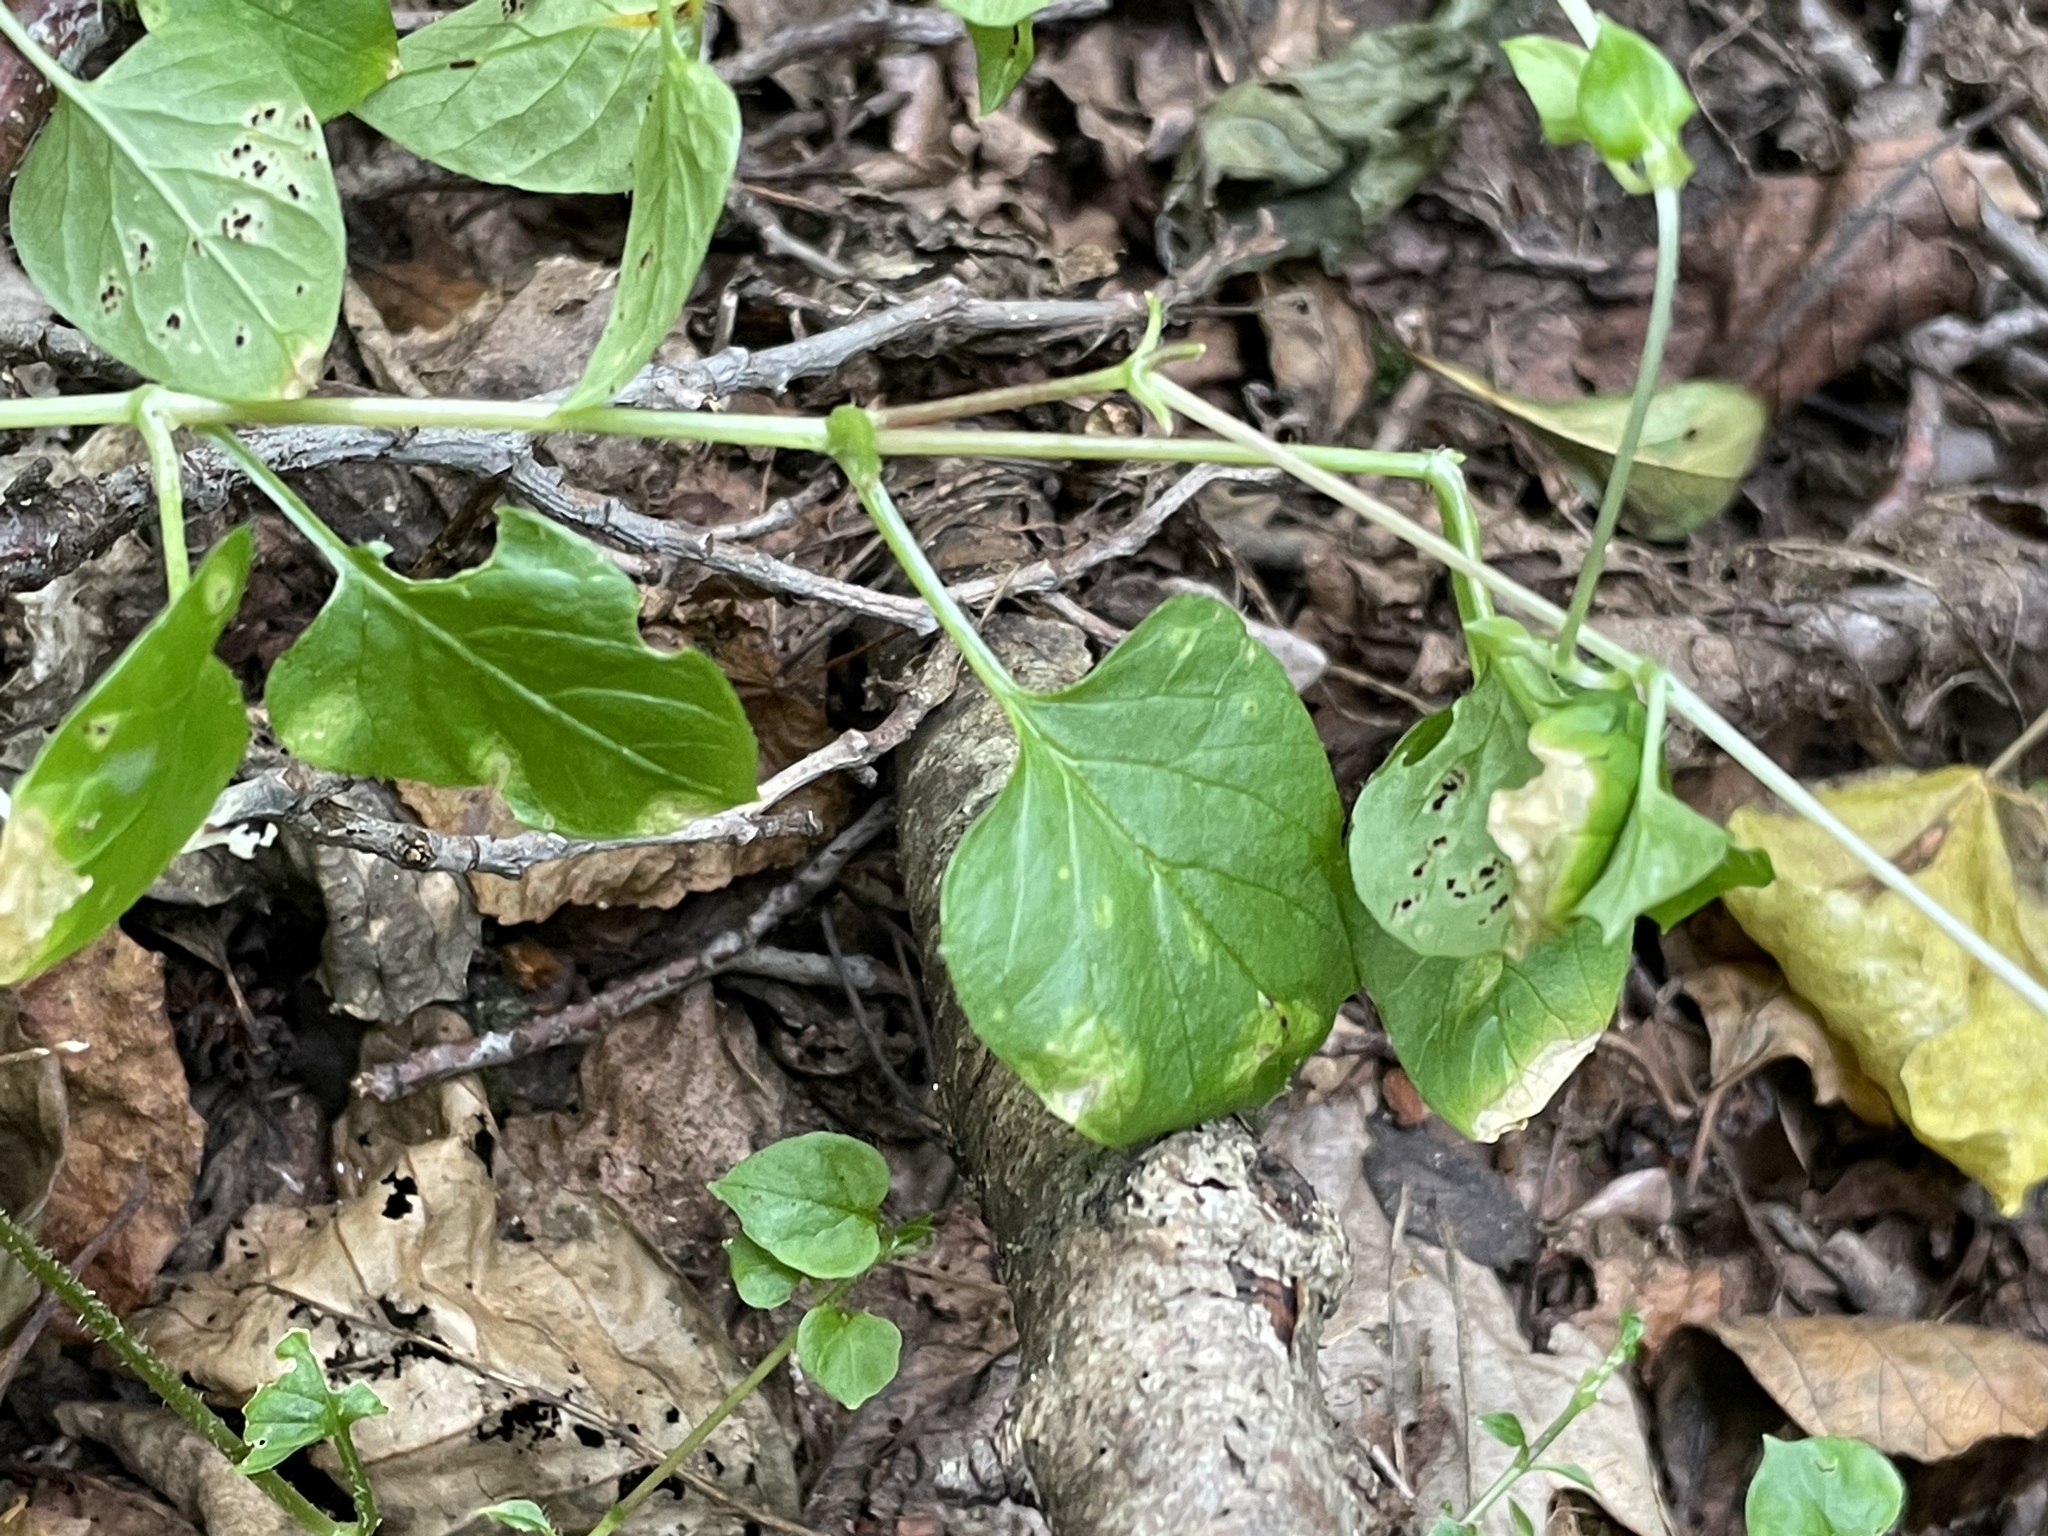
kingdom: Plantae
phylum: Tracheophyta
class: Magnoliopsida
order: Caryophyllales
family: Caryophyllaceae
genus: Stellaria
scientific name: Stellaria nemorum
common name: Wood stitchwort
